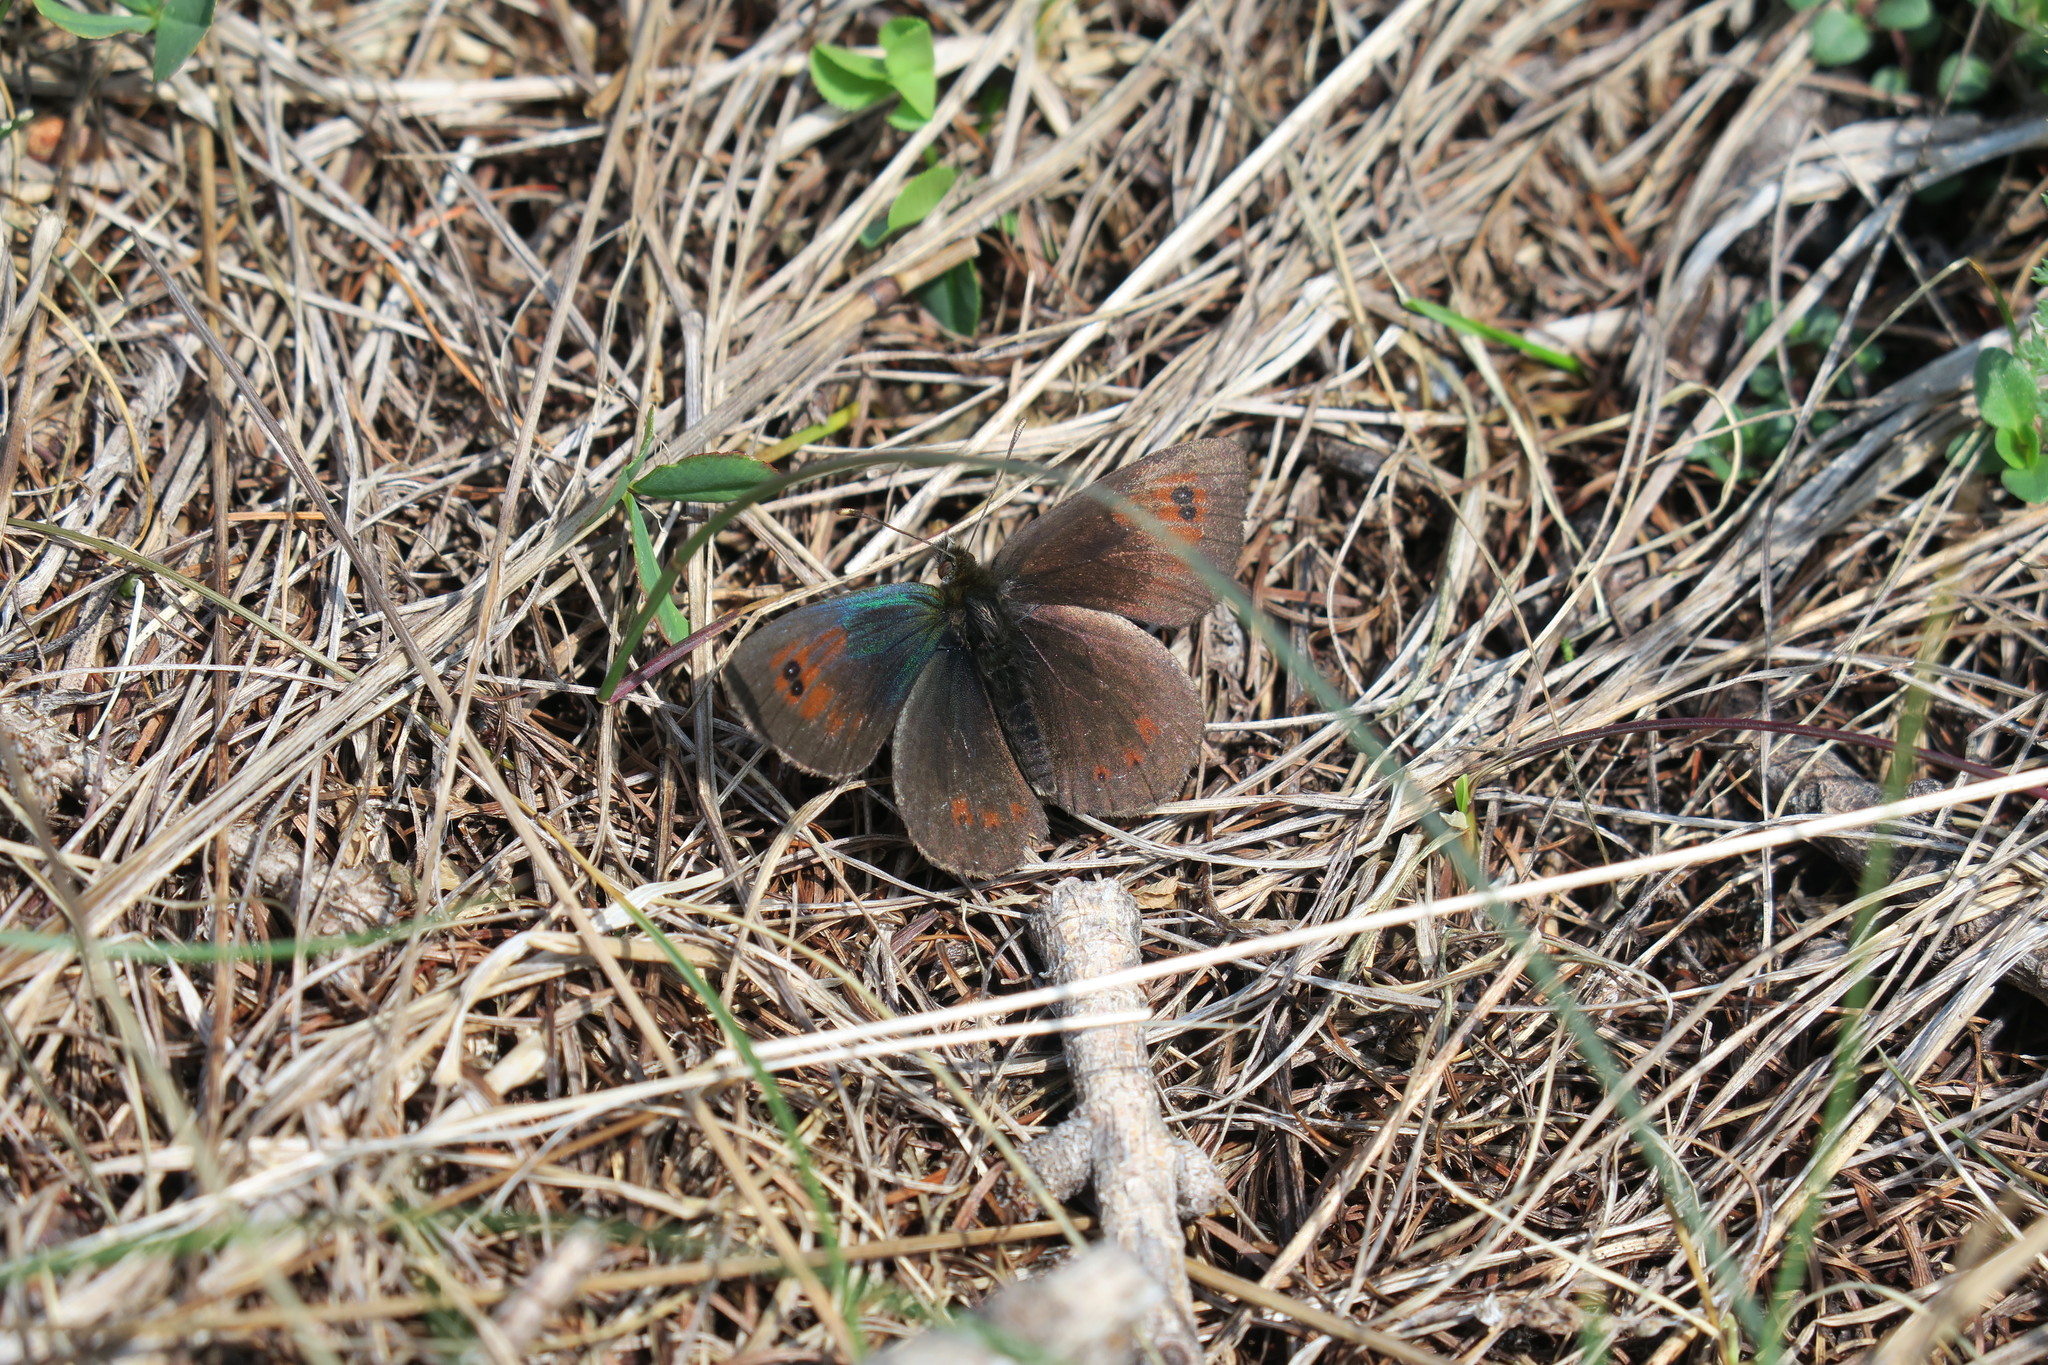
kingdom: Animalia
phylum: Arthropoda
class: Insecta
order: Lepidoptera
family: Nymphalidae
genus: Erebia
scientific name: Erebia cassioides
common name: Common brassy ringlet
